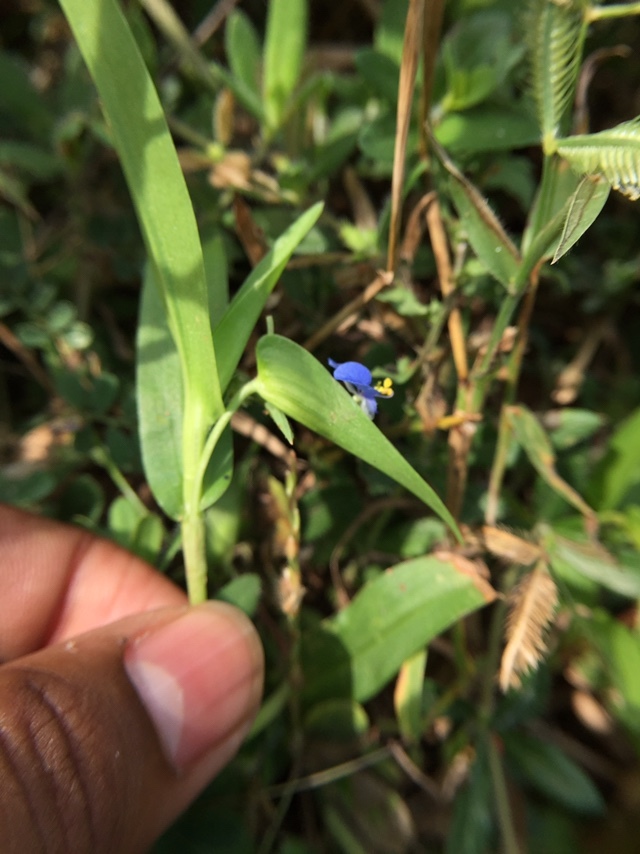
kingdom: Plantae
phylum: Tracheophyta
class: Liliopsida
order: Commelinales
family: Commelinaceae
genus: Commelina
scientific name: Commelina attenuata
